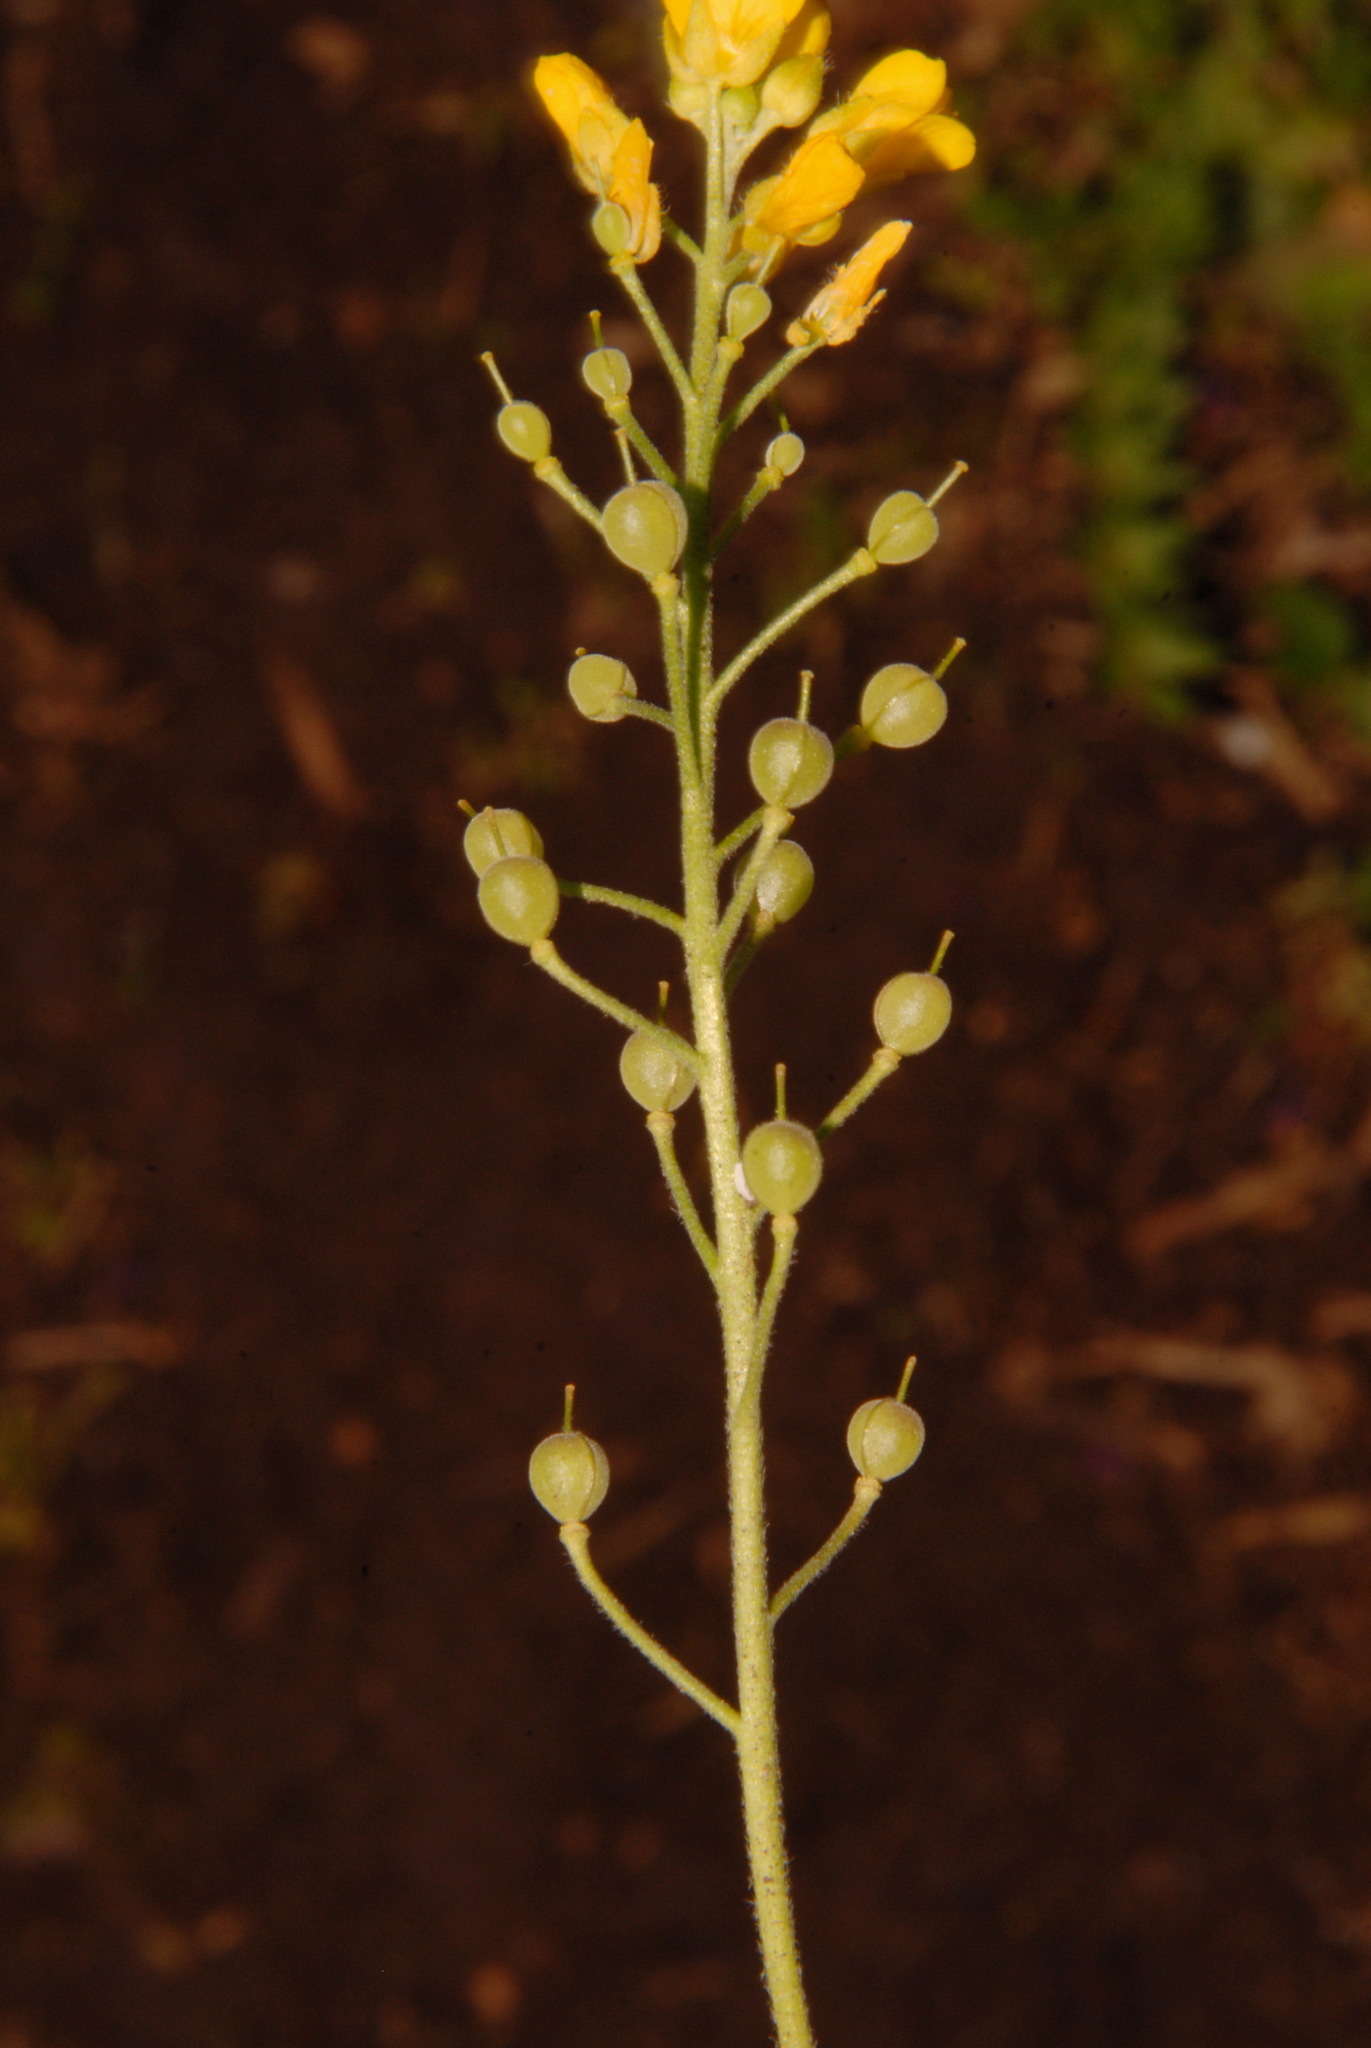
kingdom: Plantae
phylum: Tracheophyta
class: Magnoliopsida
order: Brassicales
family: Brassicaceae
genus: Paysonia
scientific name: Paysonia densipila
